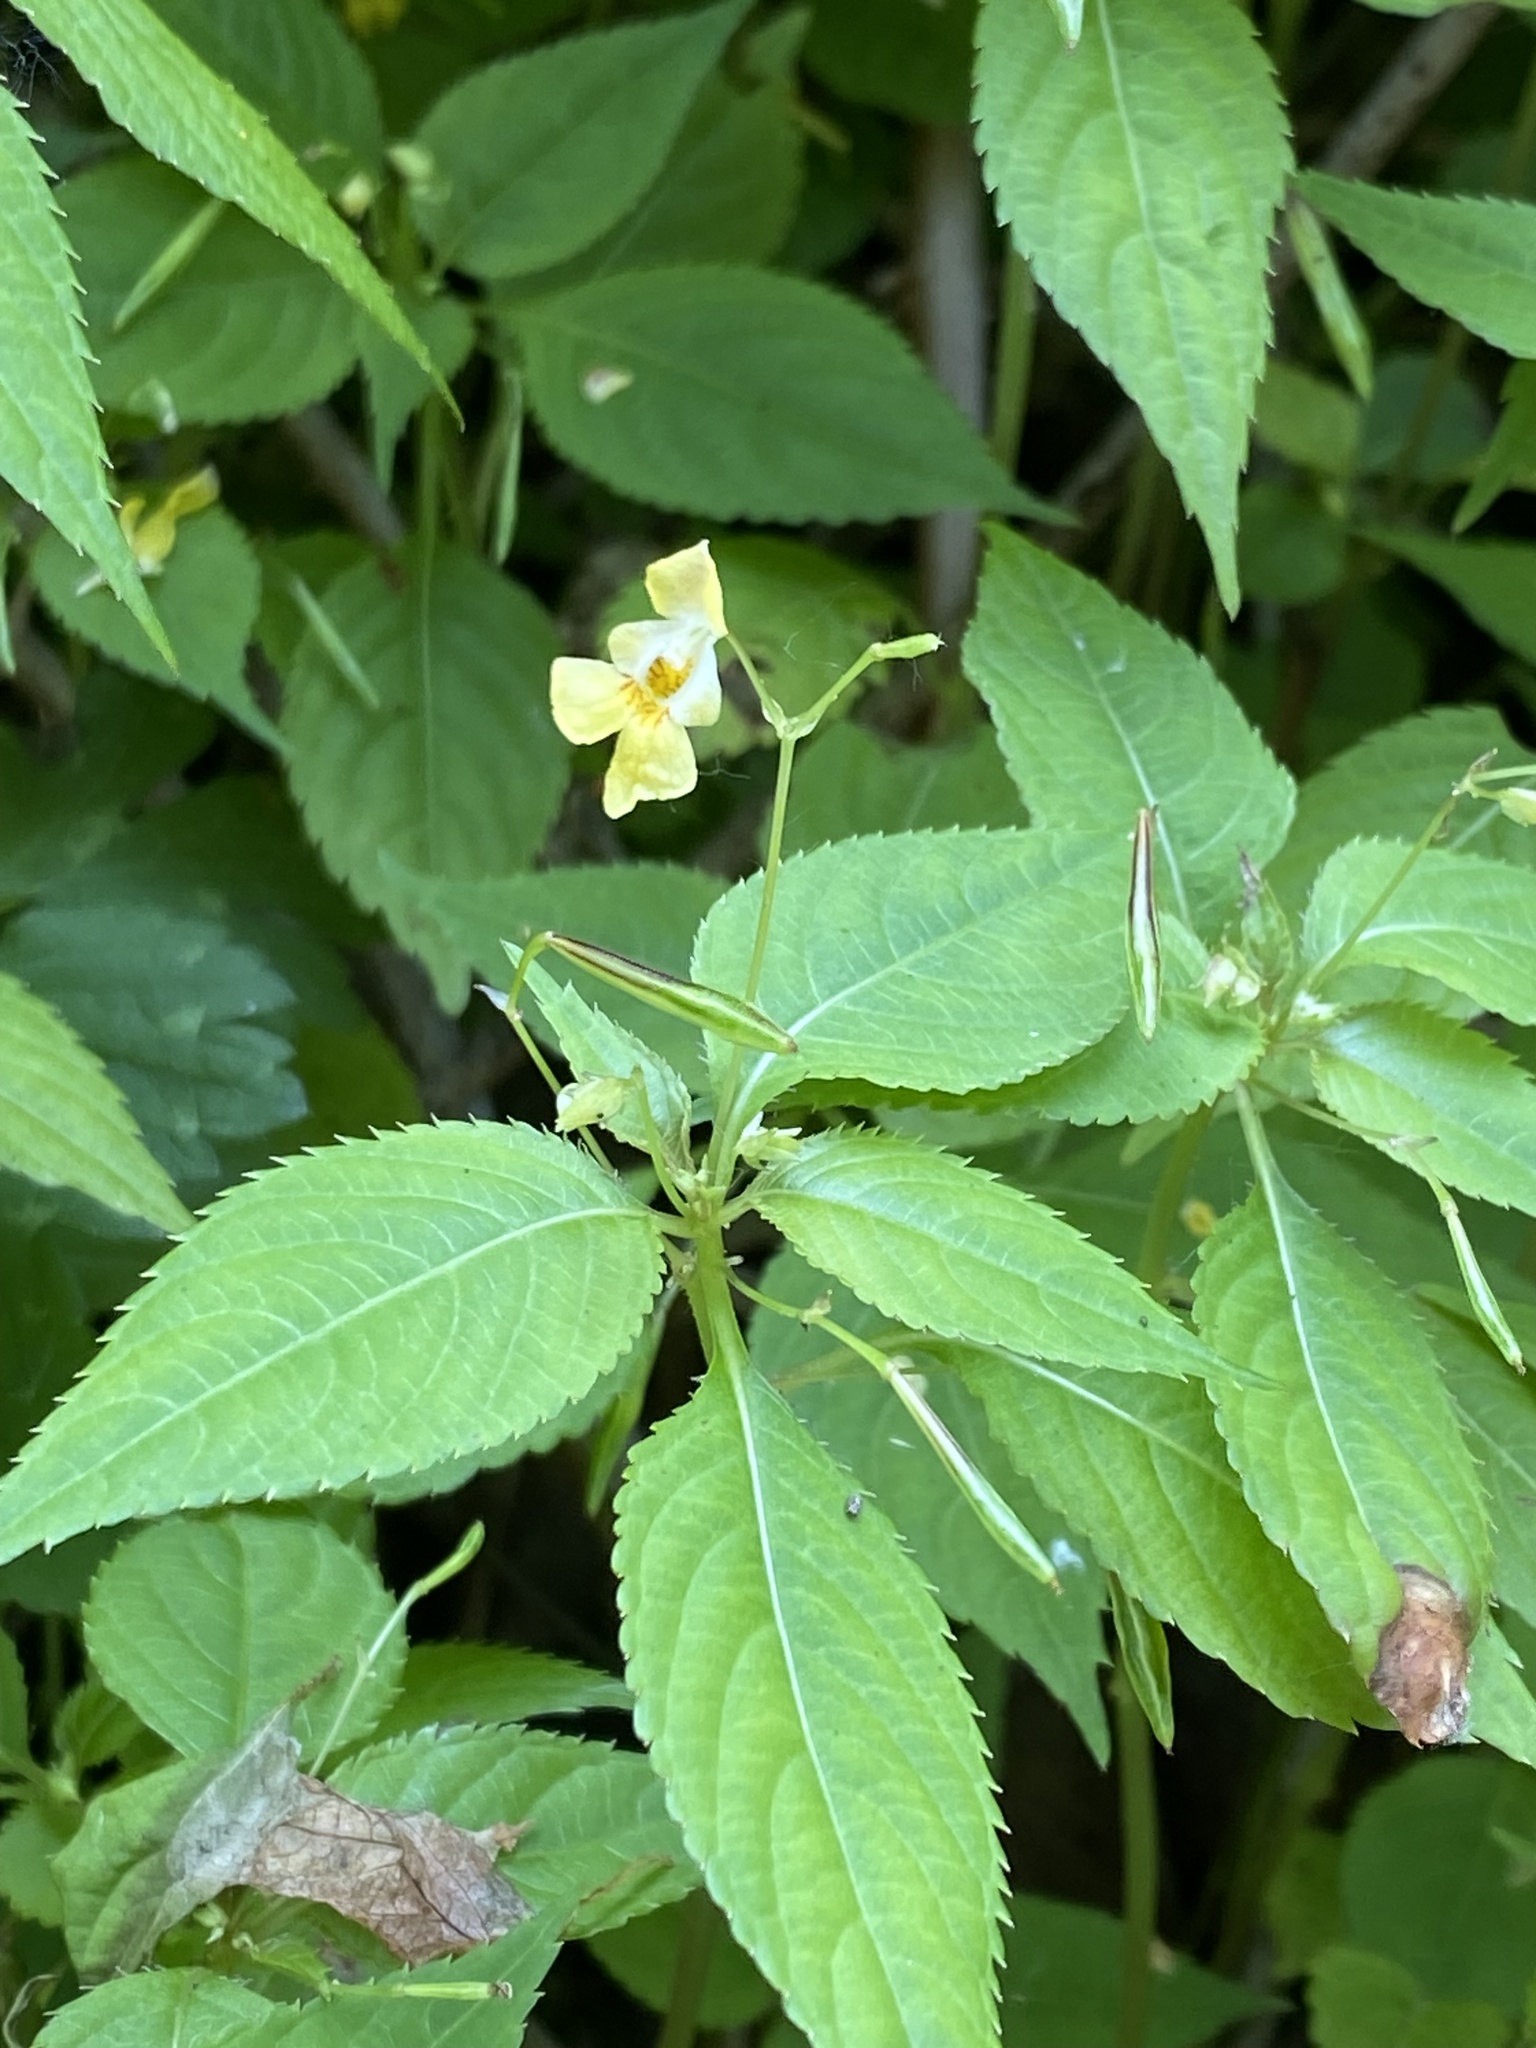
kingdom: Plantae
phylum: Tracheophyta
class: Magnoliopsida
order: Ericales
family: Balsaminaceae
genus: Impatiens
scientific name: Impatiens parviflora
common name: Small balsam
